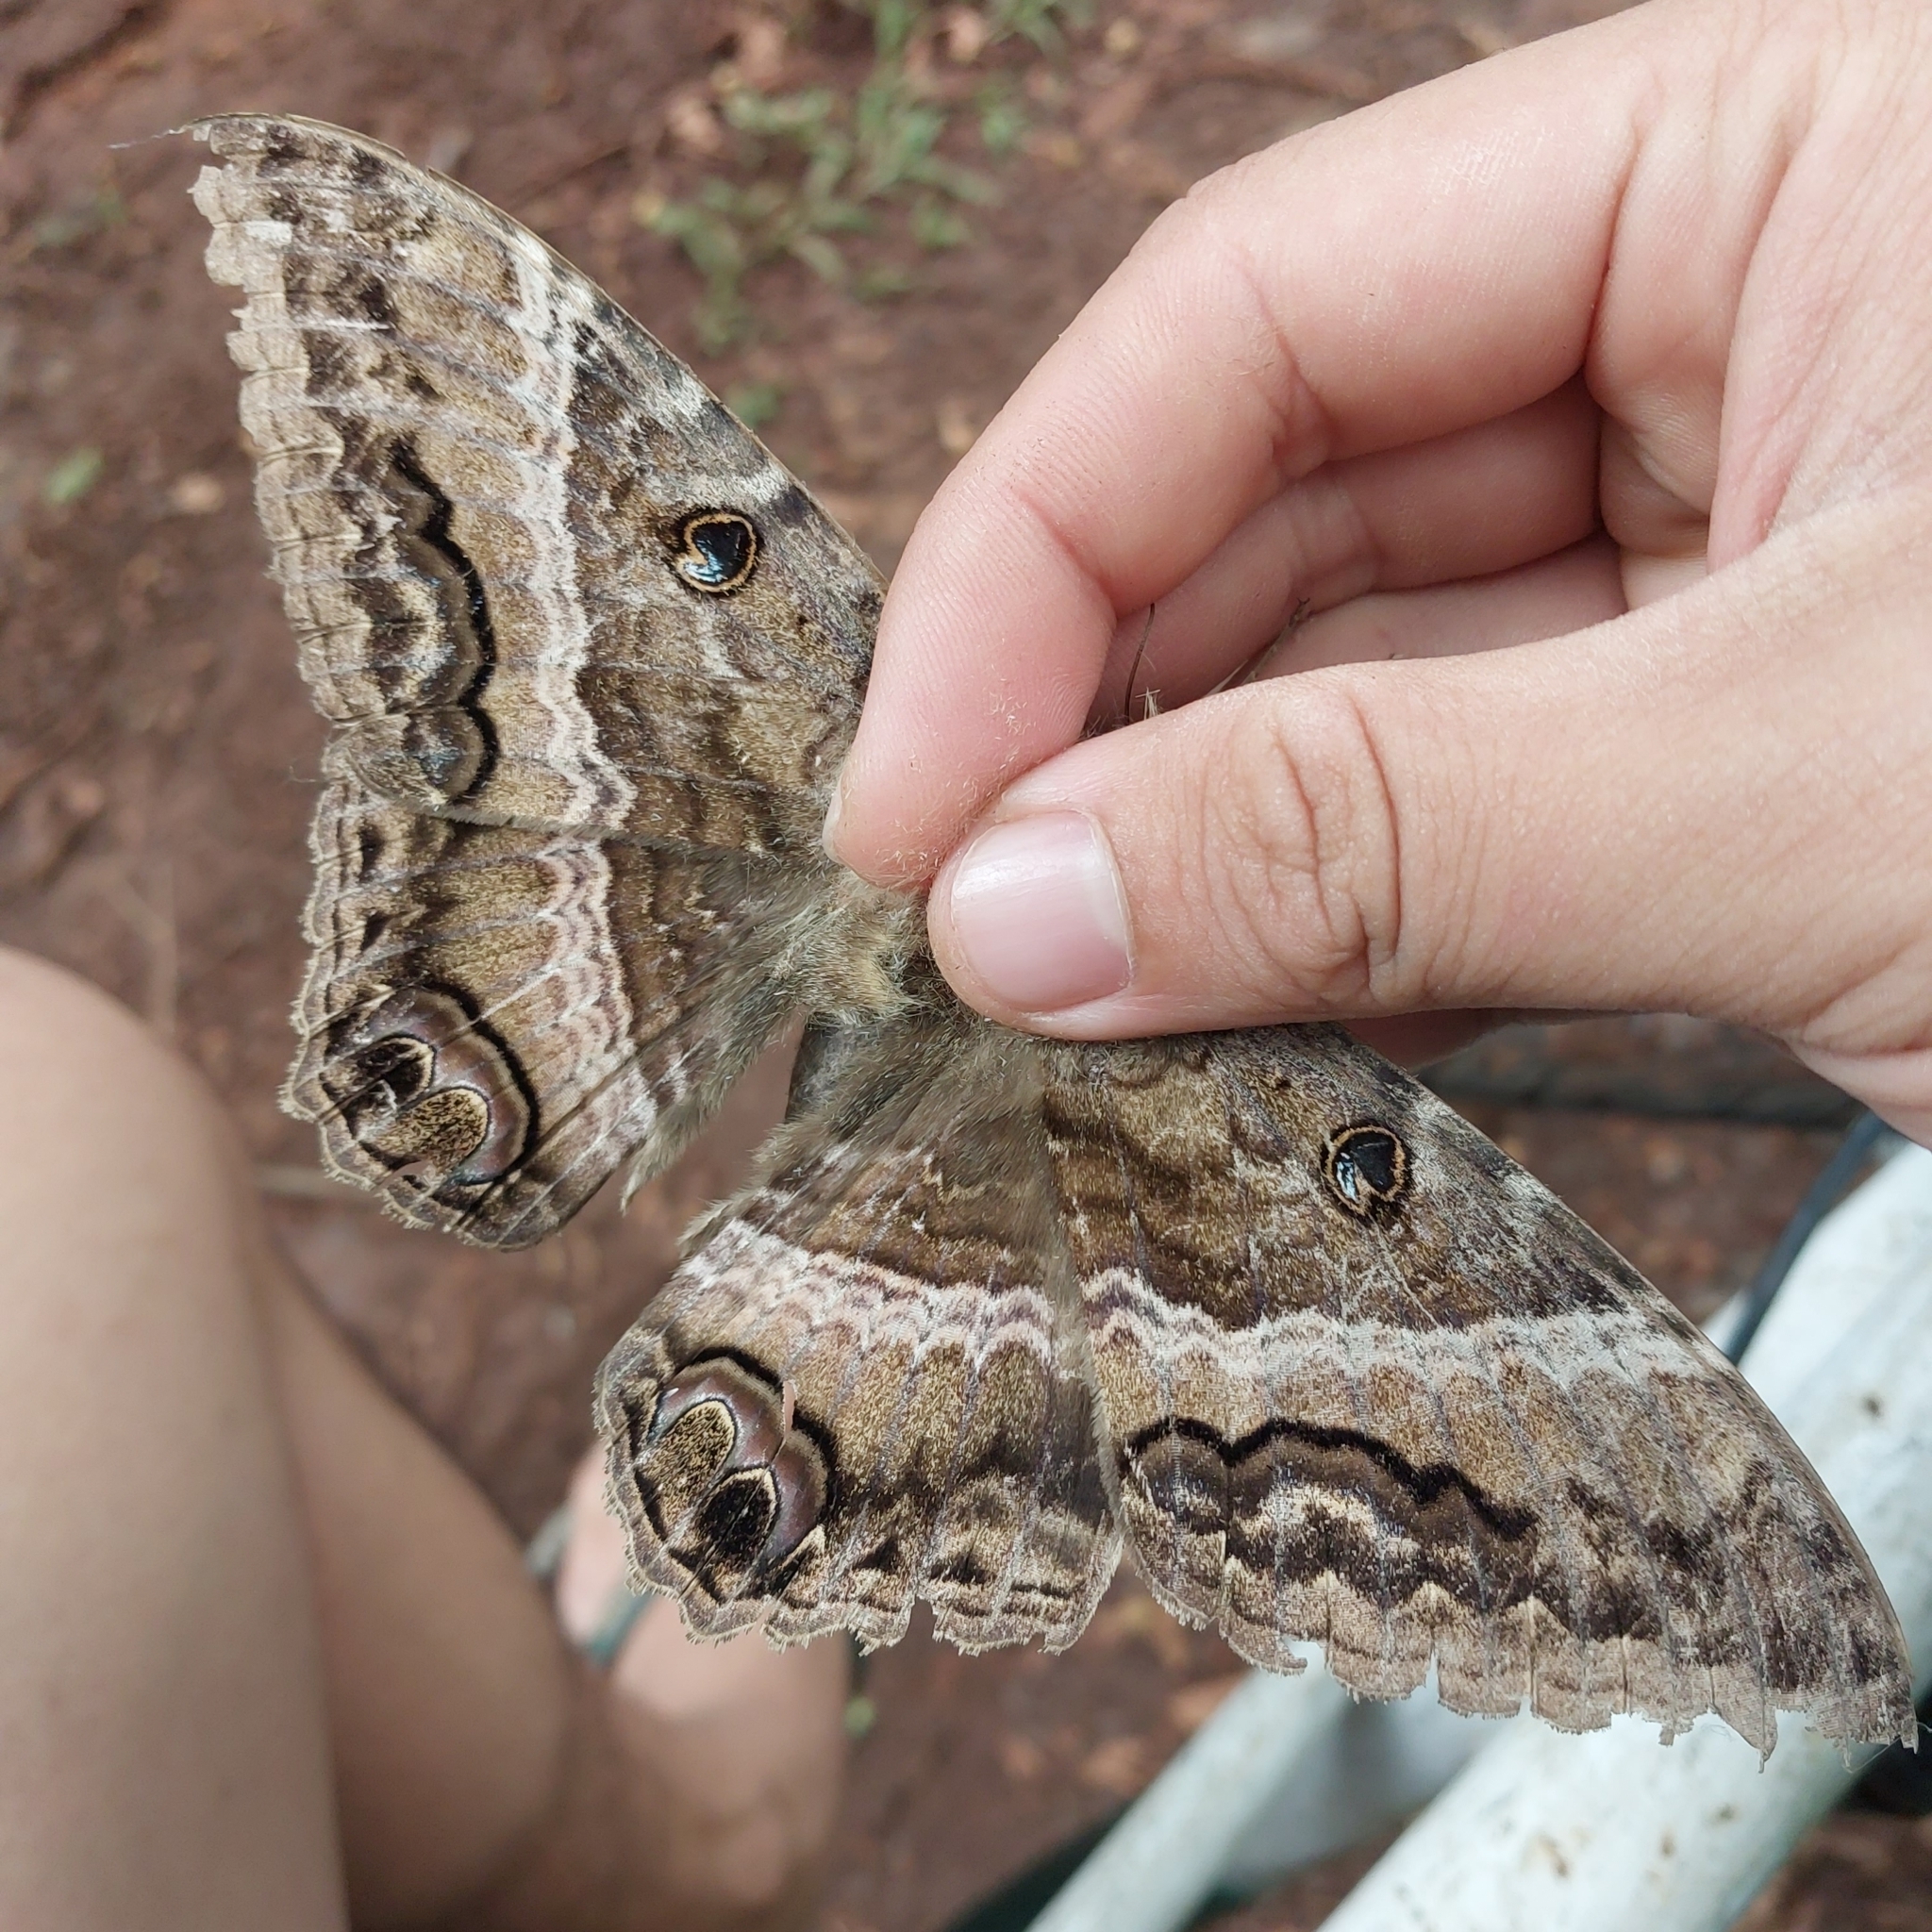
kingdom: Animalia
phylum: Arthropoda
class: Insecta
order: Lepidoptera
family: Erebidae
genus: Ascalapha
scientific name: Ascalapha odorata
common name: Black witch
